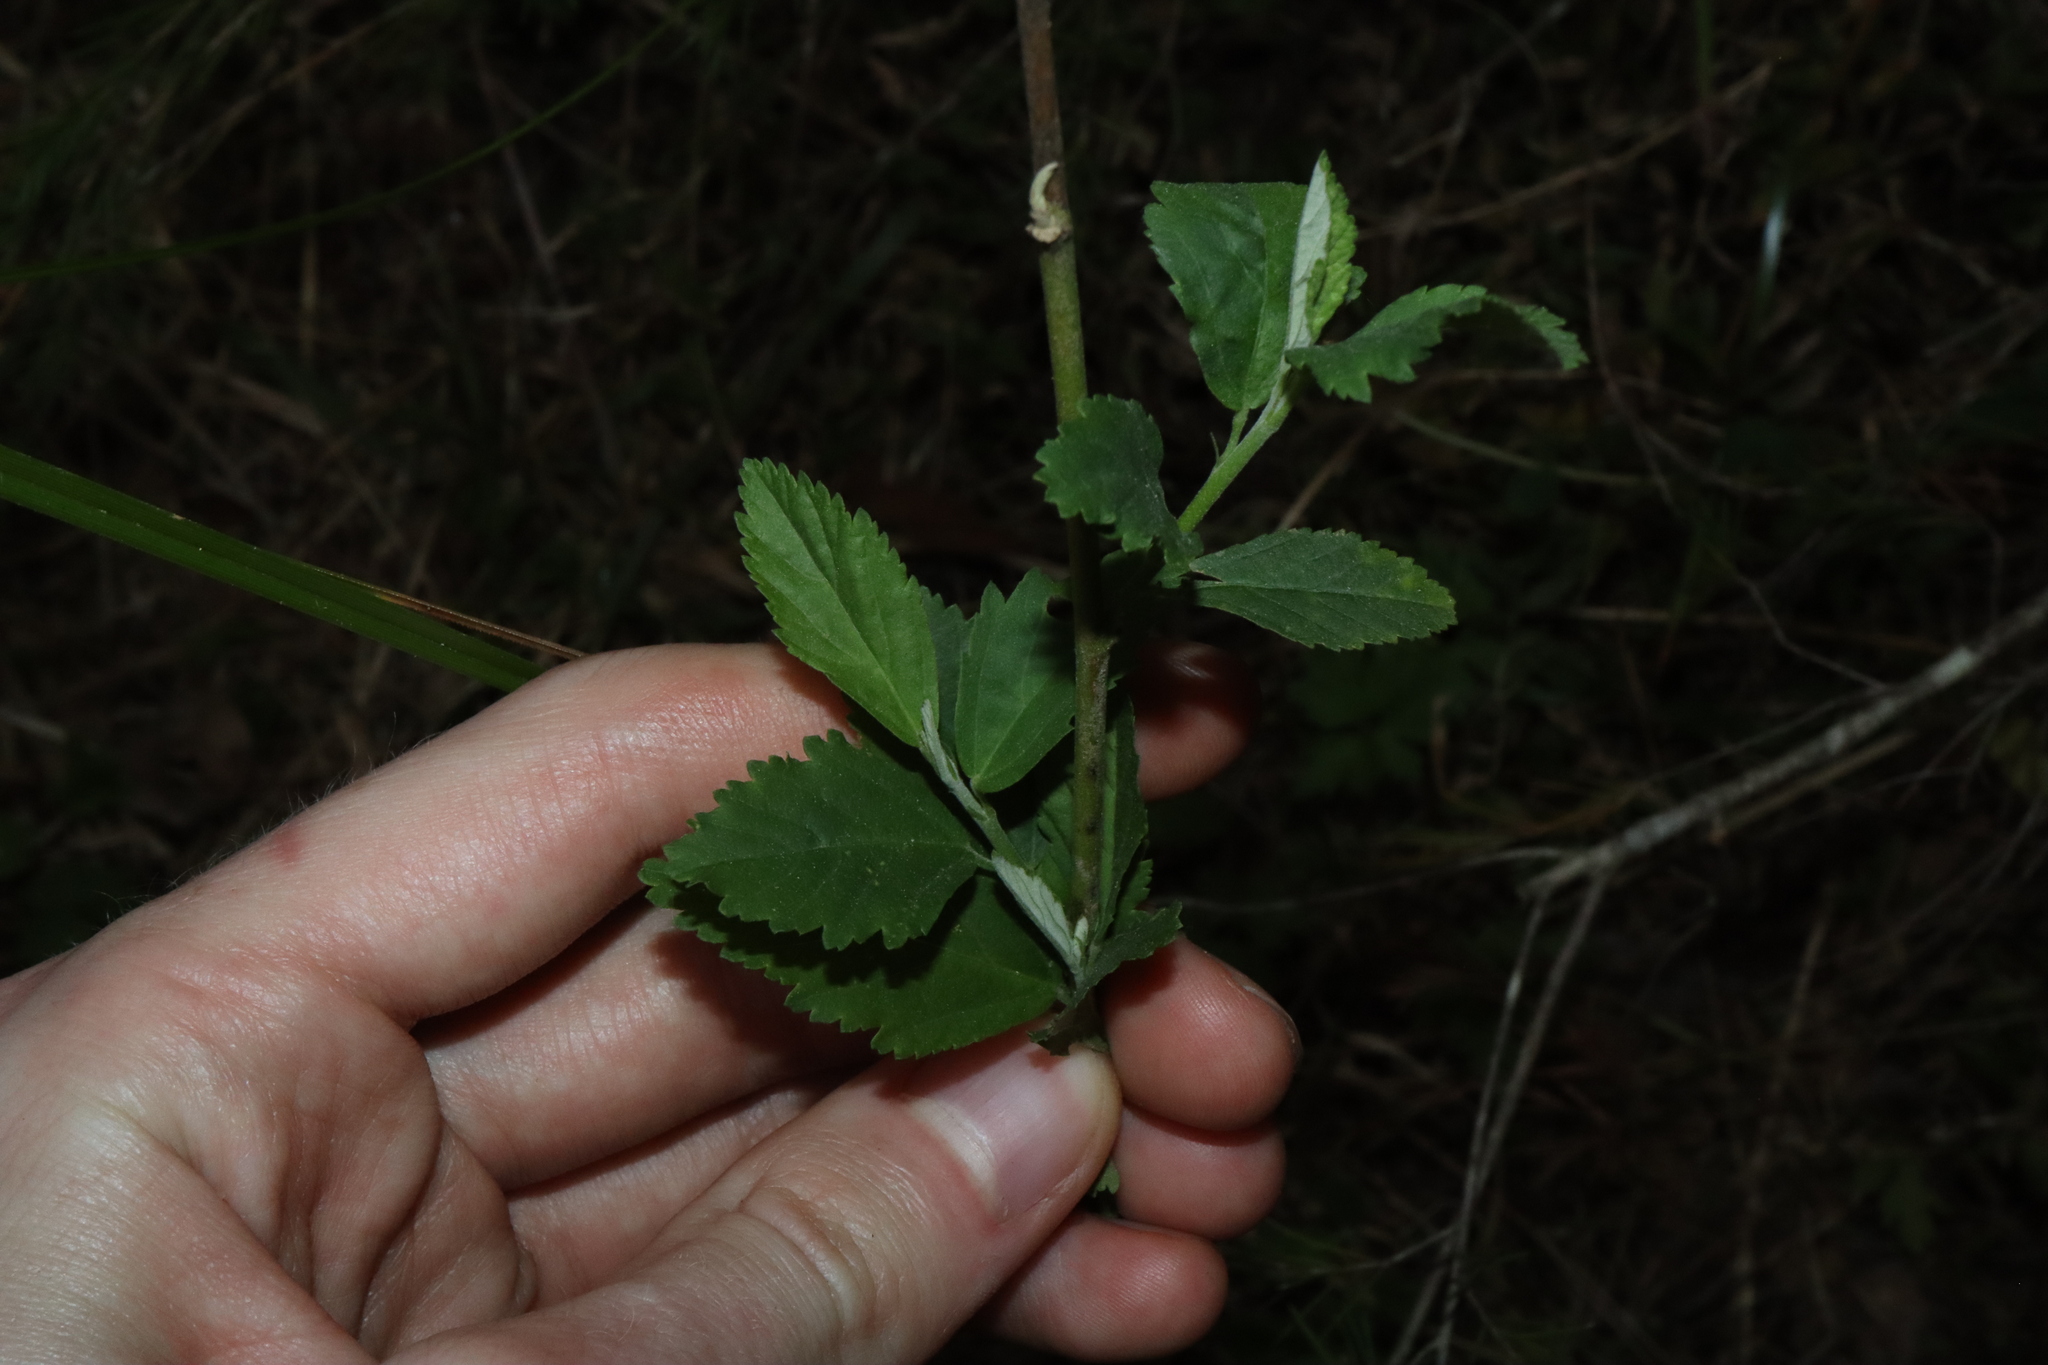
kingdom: Plantae
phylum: Tracheophyta
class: Magnoliopsida
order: Malvales
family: Malvaceae
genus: Sida
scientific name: Sida rhombifolia
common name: Queensland-hemp
